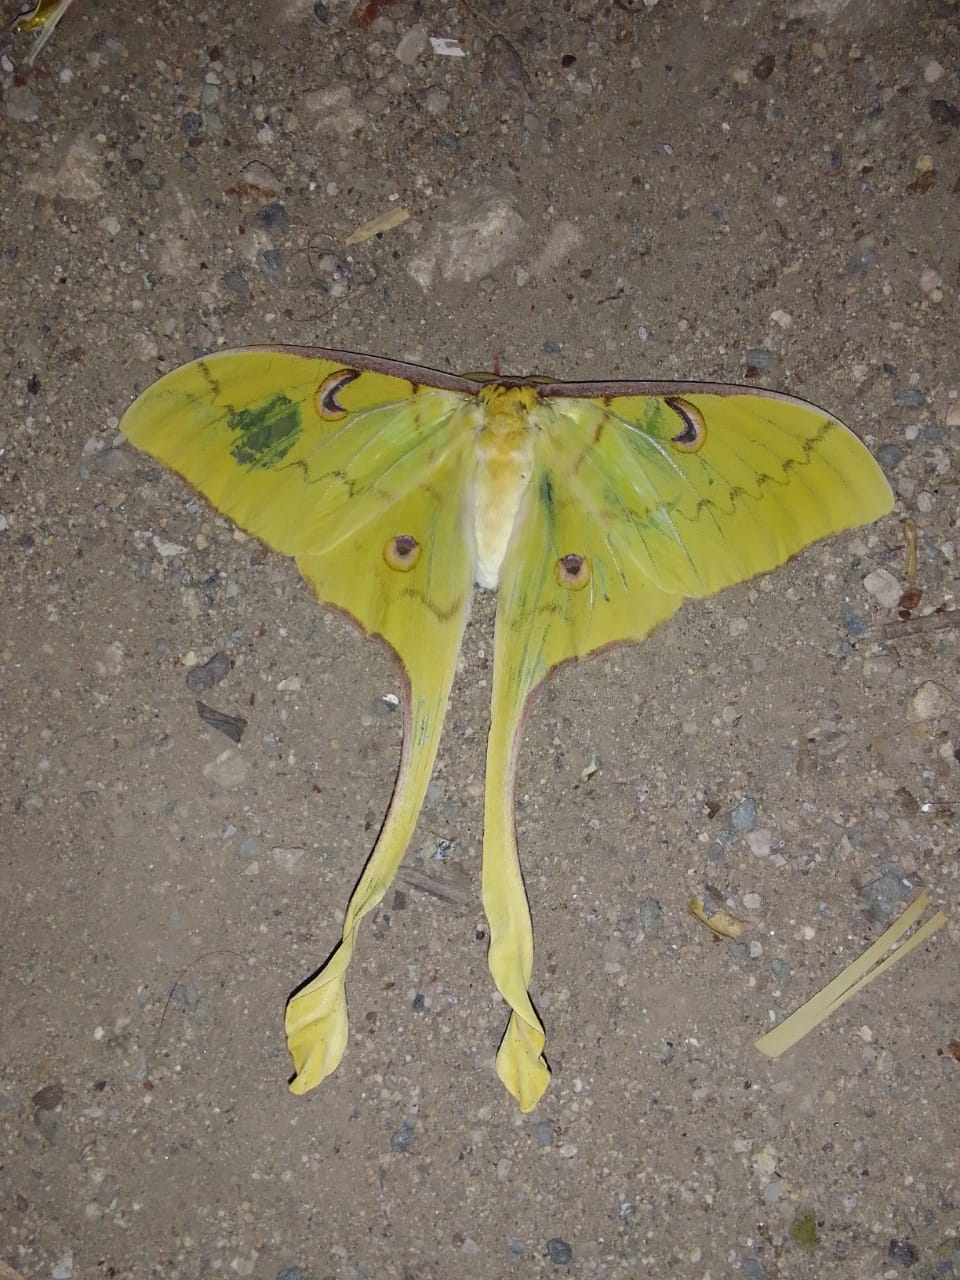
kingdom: Animalia
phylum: Arthropoda
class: Insecta
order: Lepidoptera
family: Saturniidae
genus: Actias
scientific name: Actias groenendaeli
